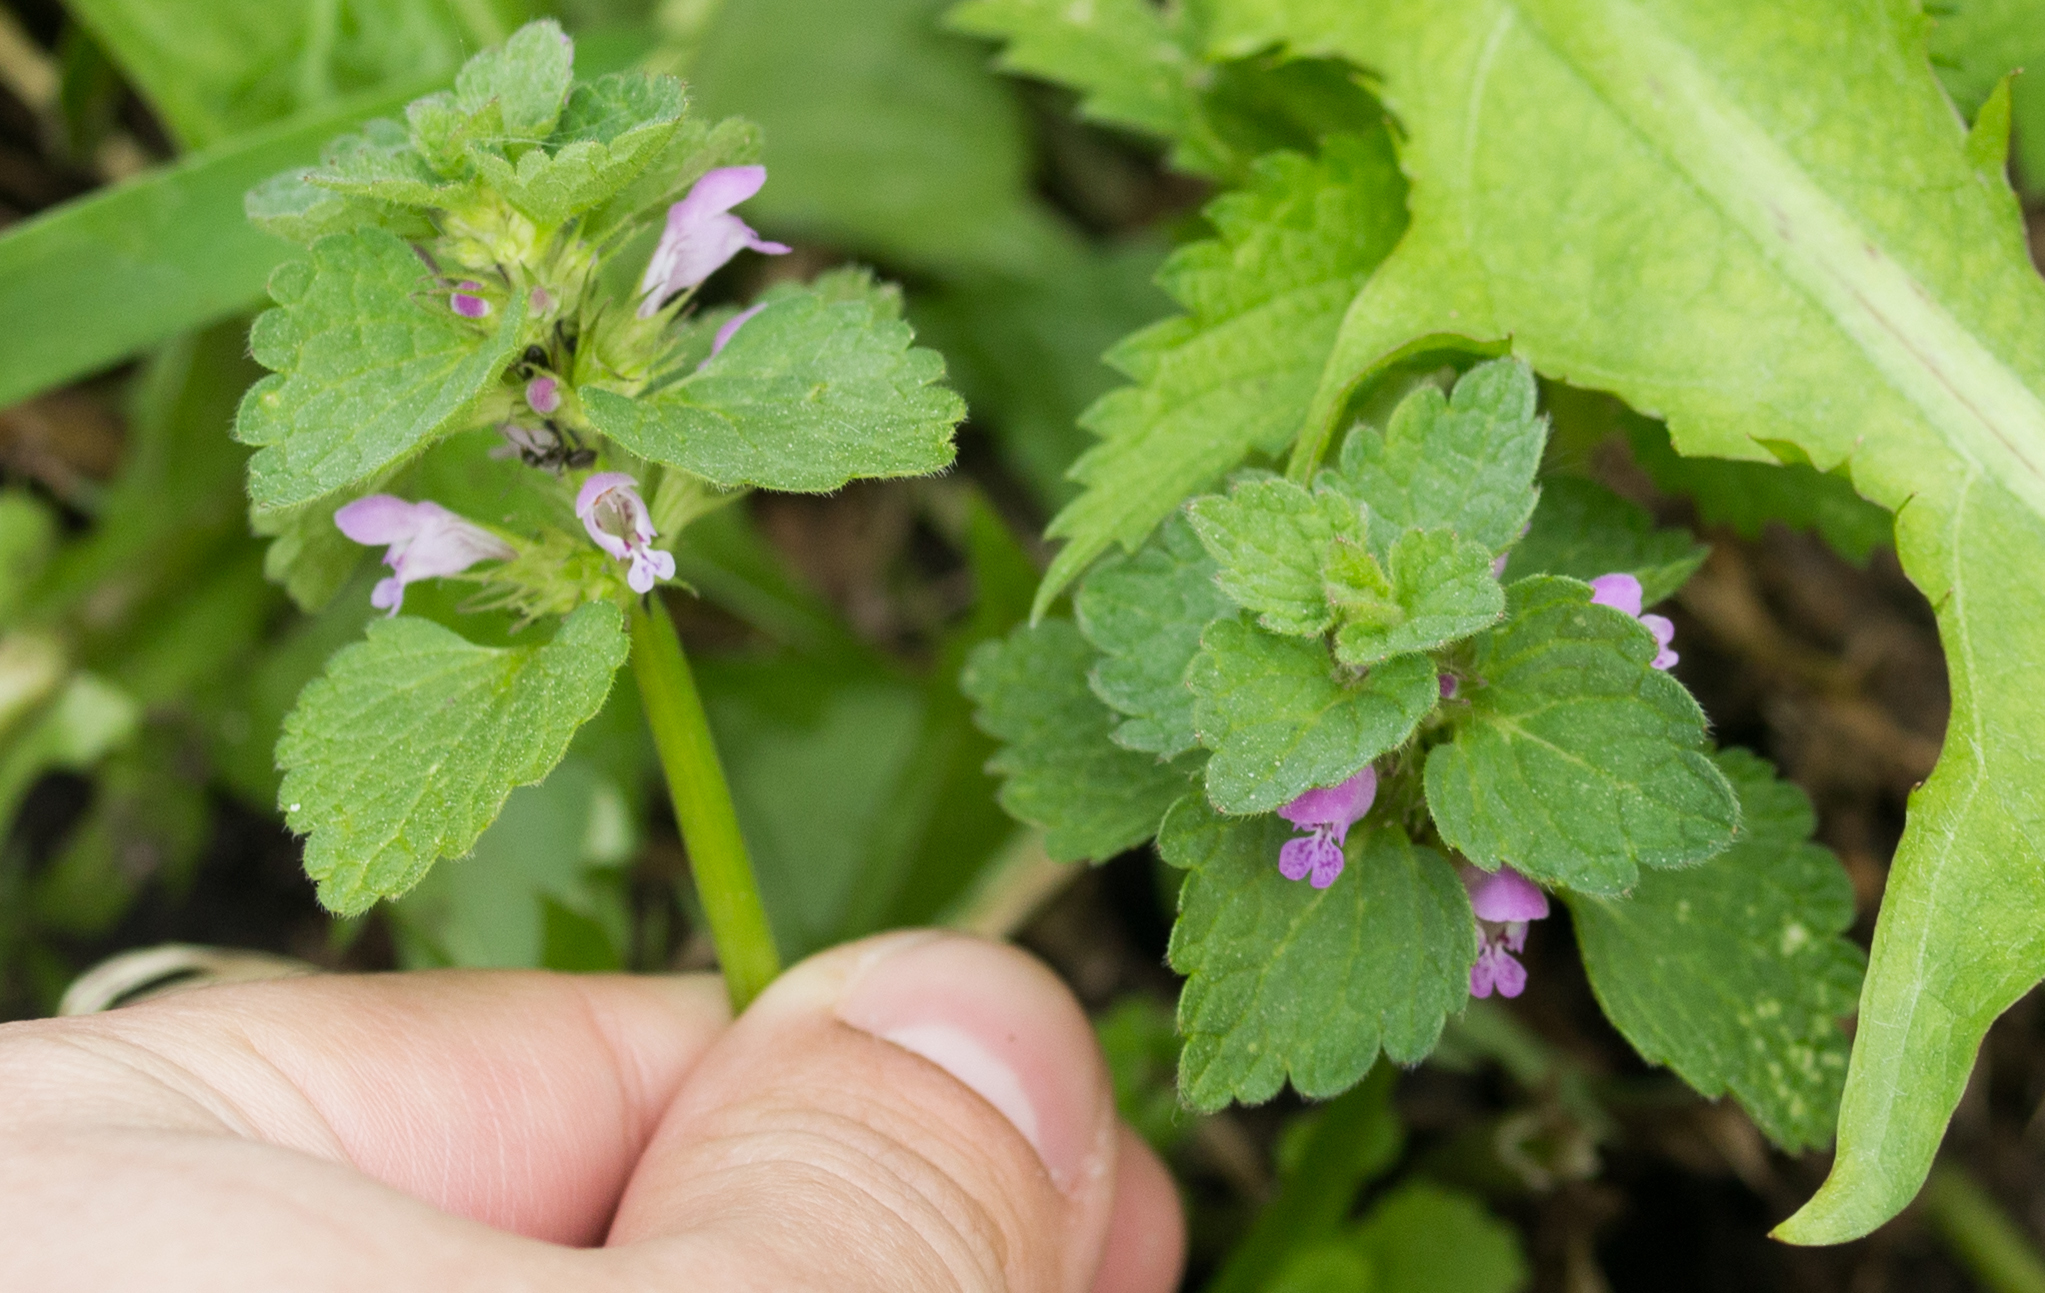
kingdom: Plantae
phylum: Tracheophyta
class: Magnoliopsida
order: Lamiales
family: Lamiaceae
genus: Lamium
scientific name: Lamium purpureum
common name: Red dead-nettle
